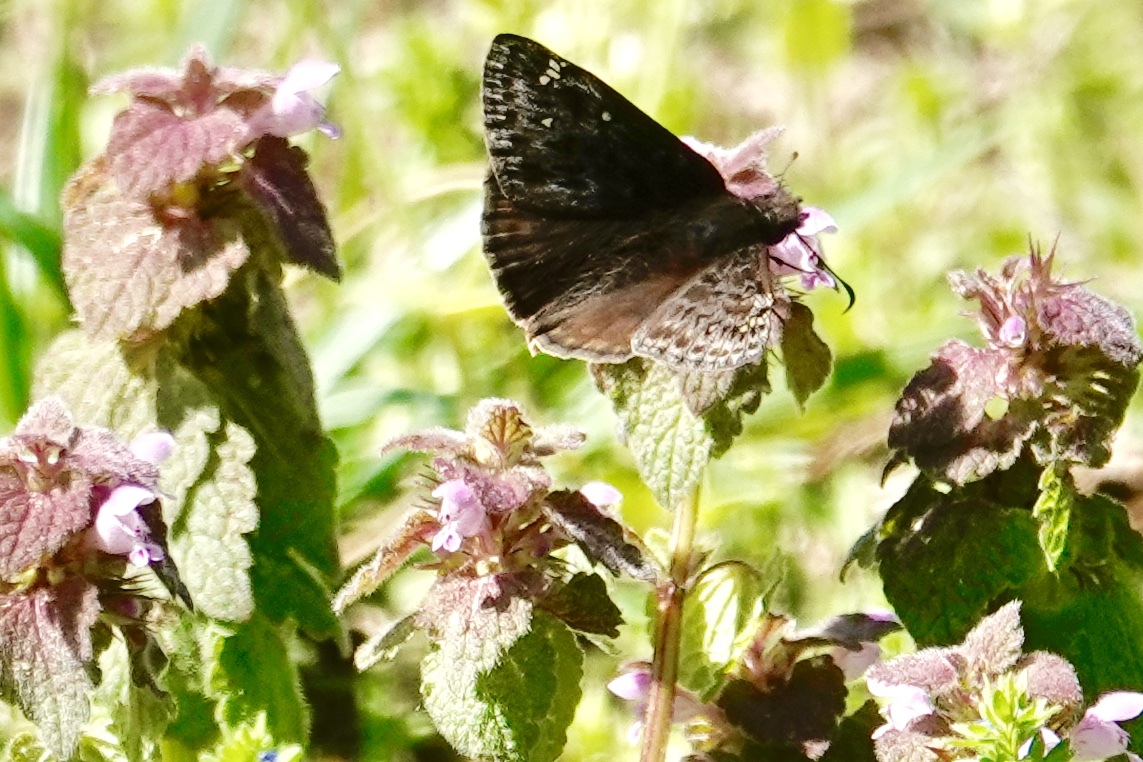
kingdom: Animalia
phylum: Arthropoda
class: Insecta
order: Lepidoptera
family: Hesperiidae
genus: Erynnis
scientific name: Erynnis juvenalis
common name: Juvenal's duskywing
